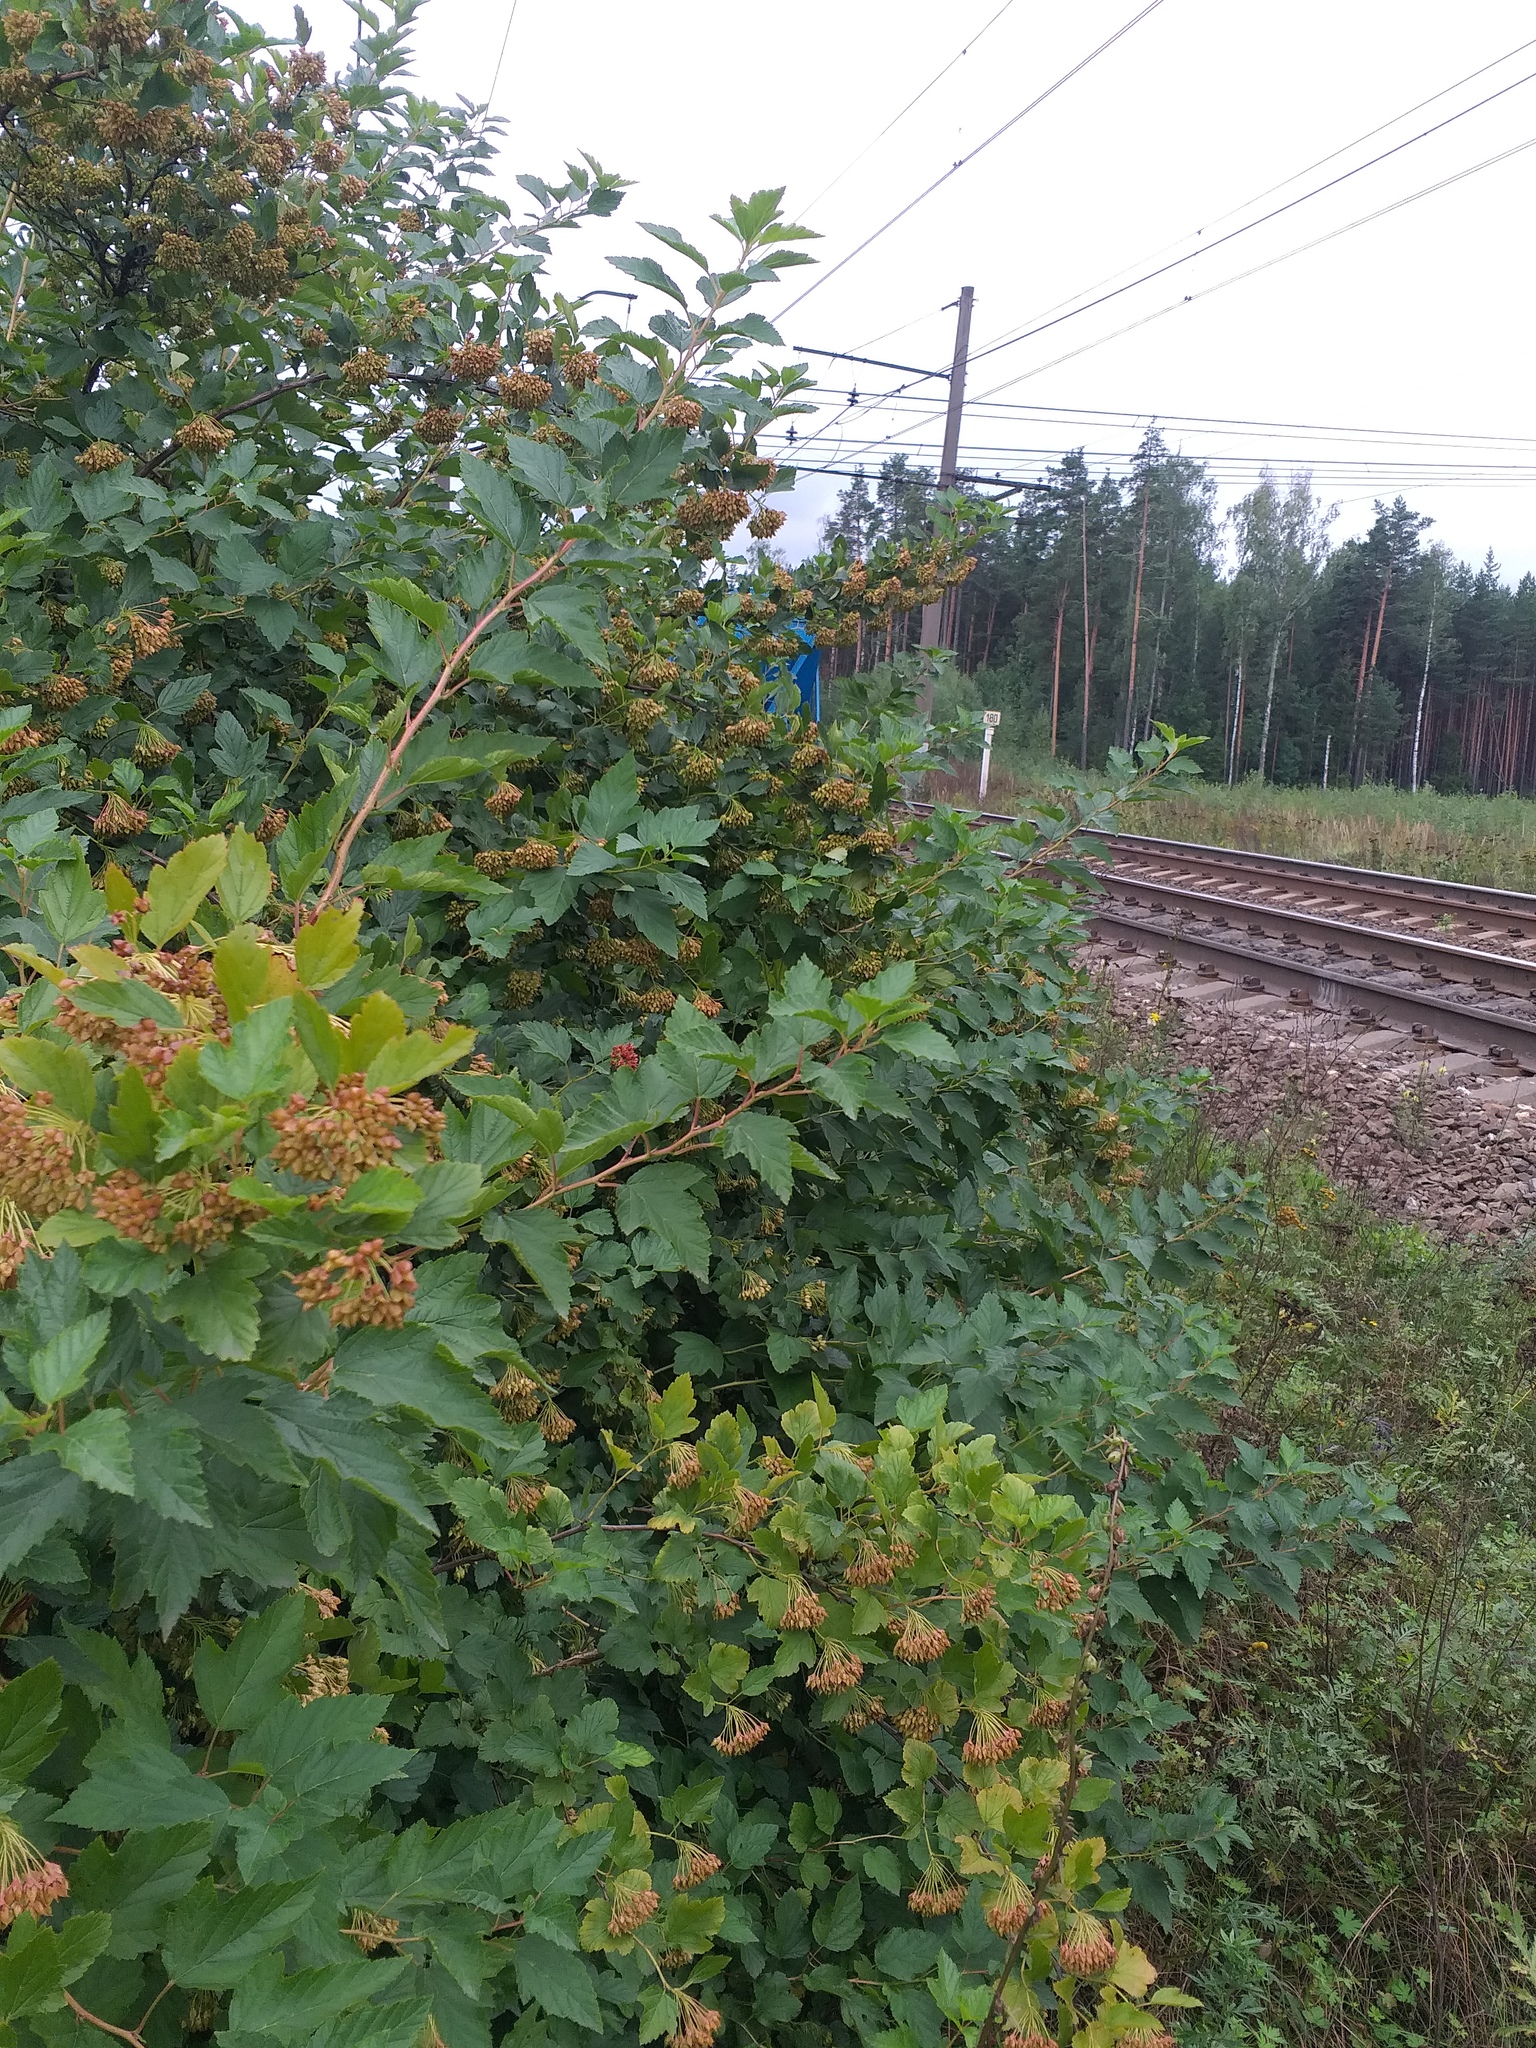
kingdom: Plantae
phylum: Tracheophyta
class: Magnoliopsida
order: Rosales
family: Rosaceae
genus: Physocarpus
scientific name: Physocarpus opulifolius
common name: Ninebark
